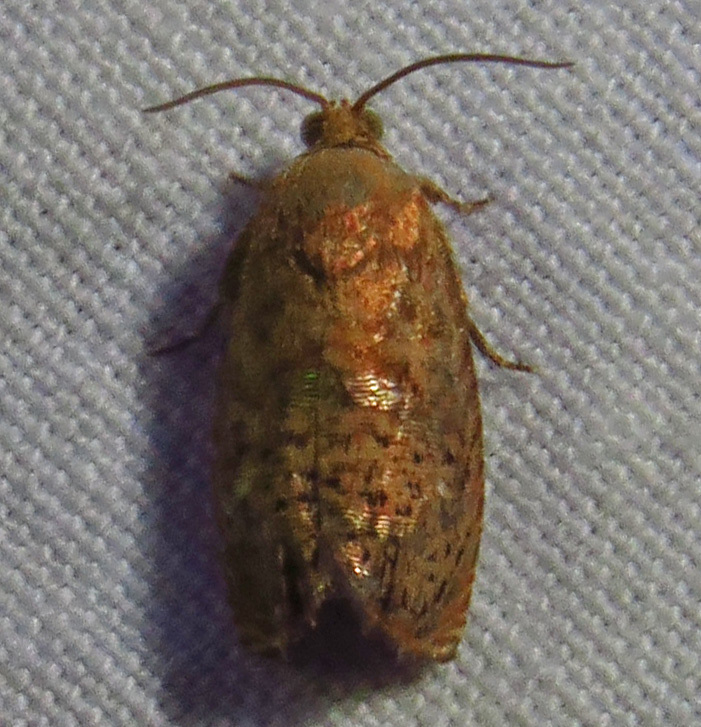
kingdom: Animalia
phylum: Arthropoda
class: Insecta
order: Lepidoptera
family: Tortricidae
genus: Cydia
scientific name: Cydia latiferreana
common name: Filbertworm moth
